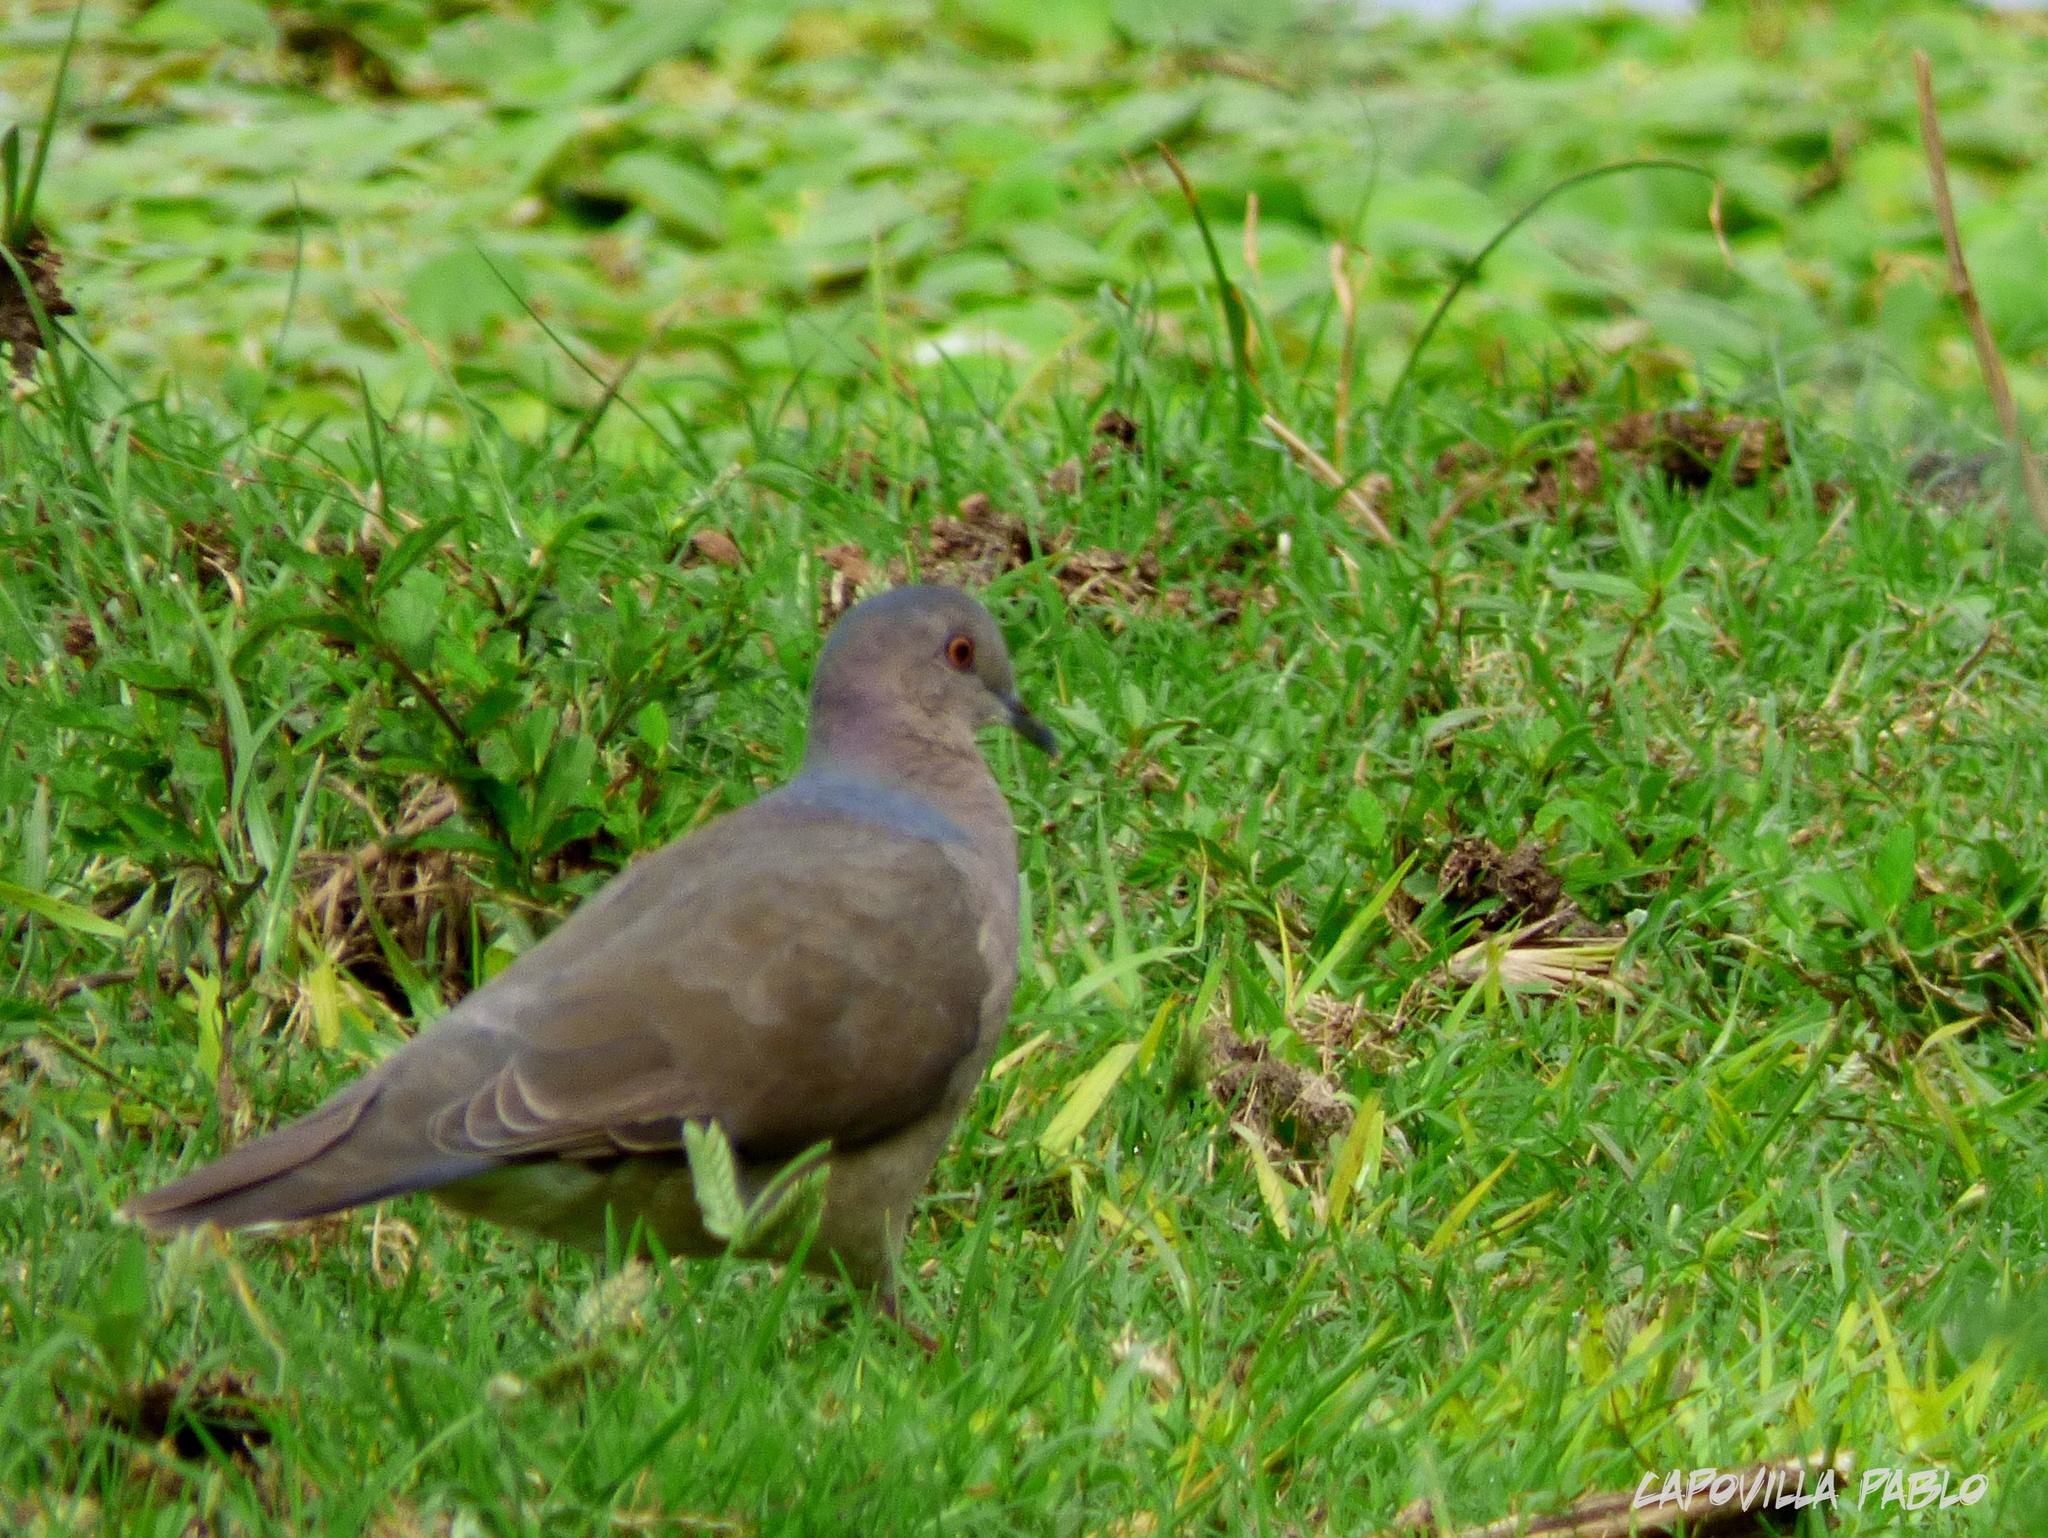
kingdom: Animalia
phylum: Chordata
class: Aves
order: Columbiformes
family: Columbidae
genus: Leptotila
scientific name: Leptotila verreauxi
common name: White-tipped dove
